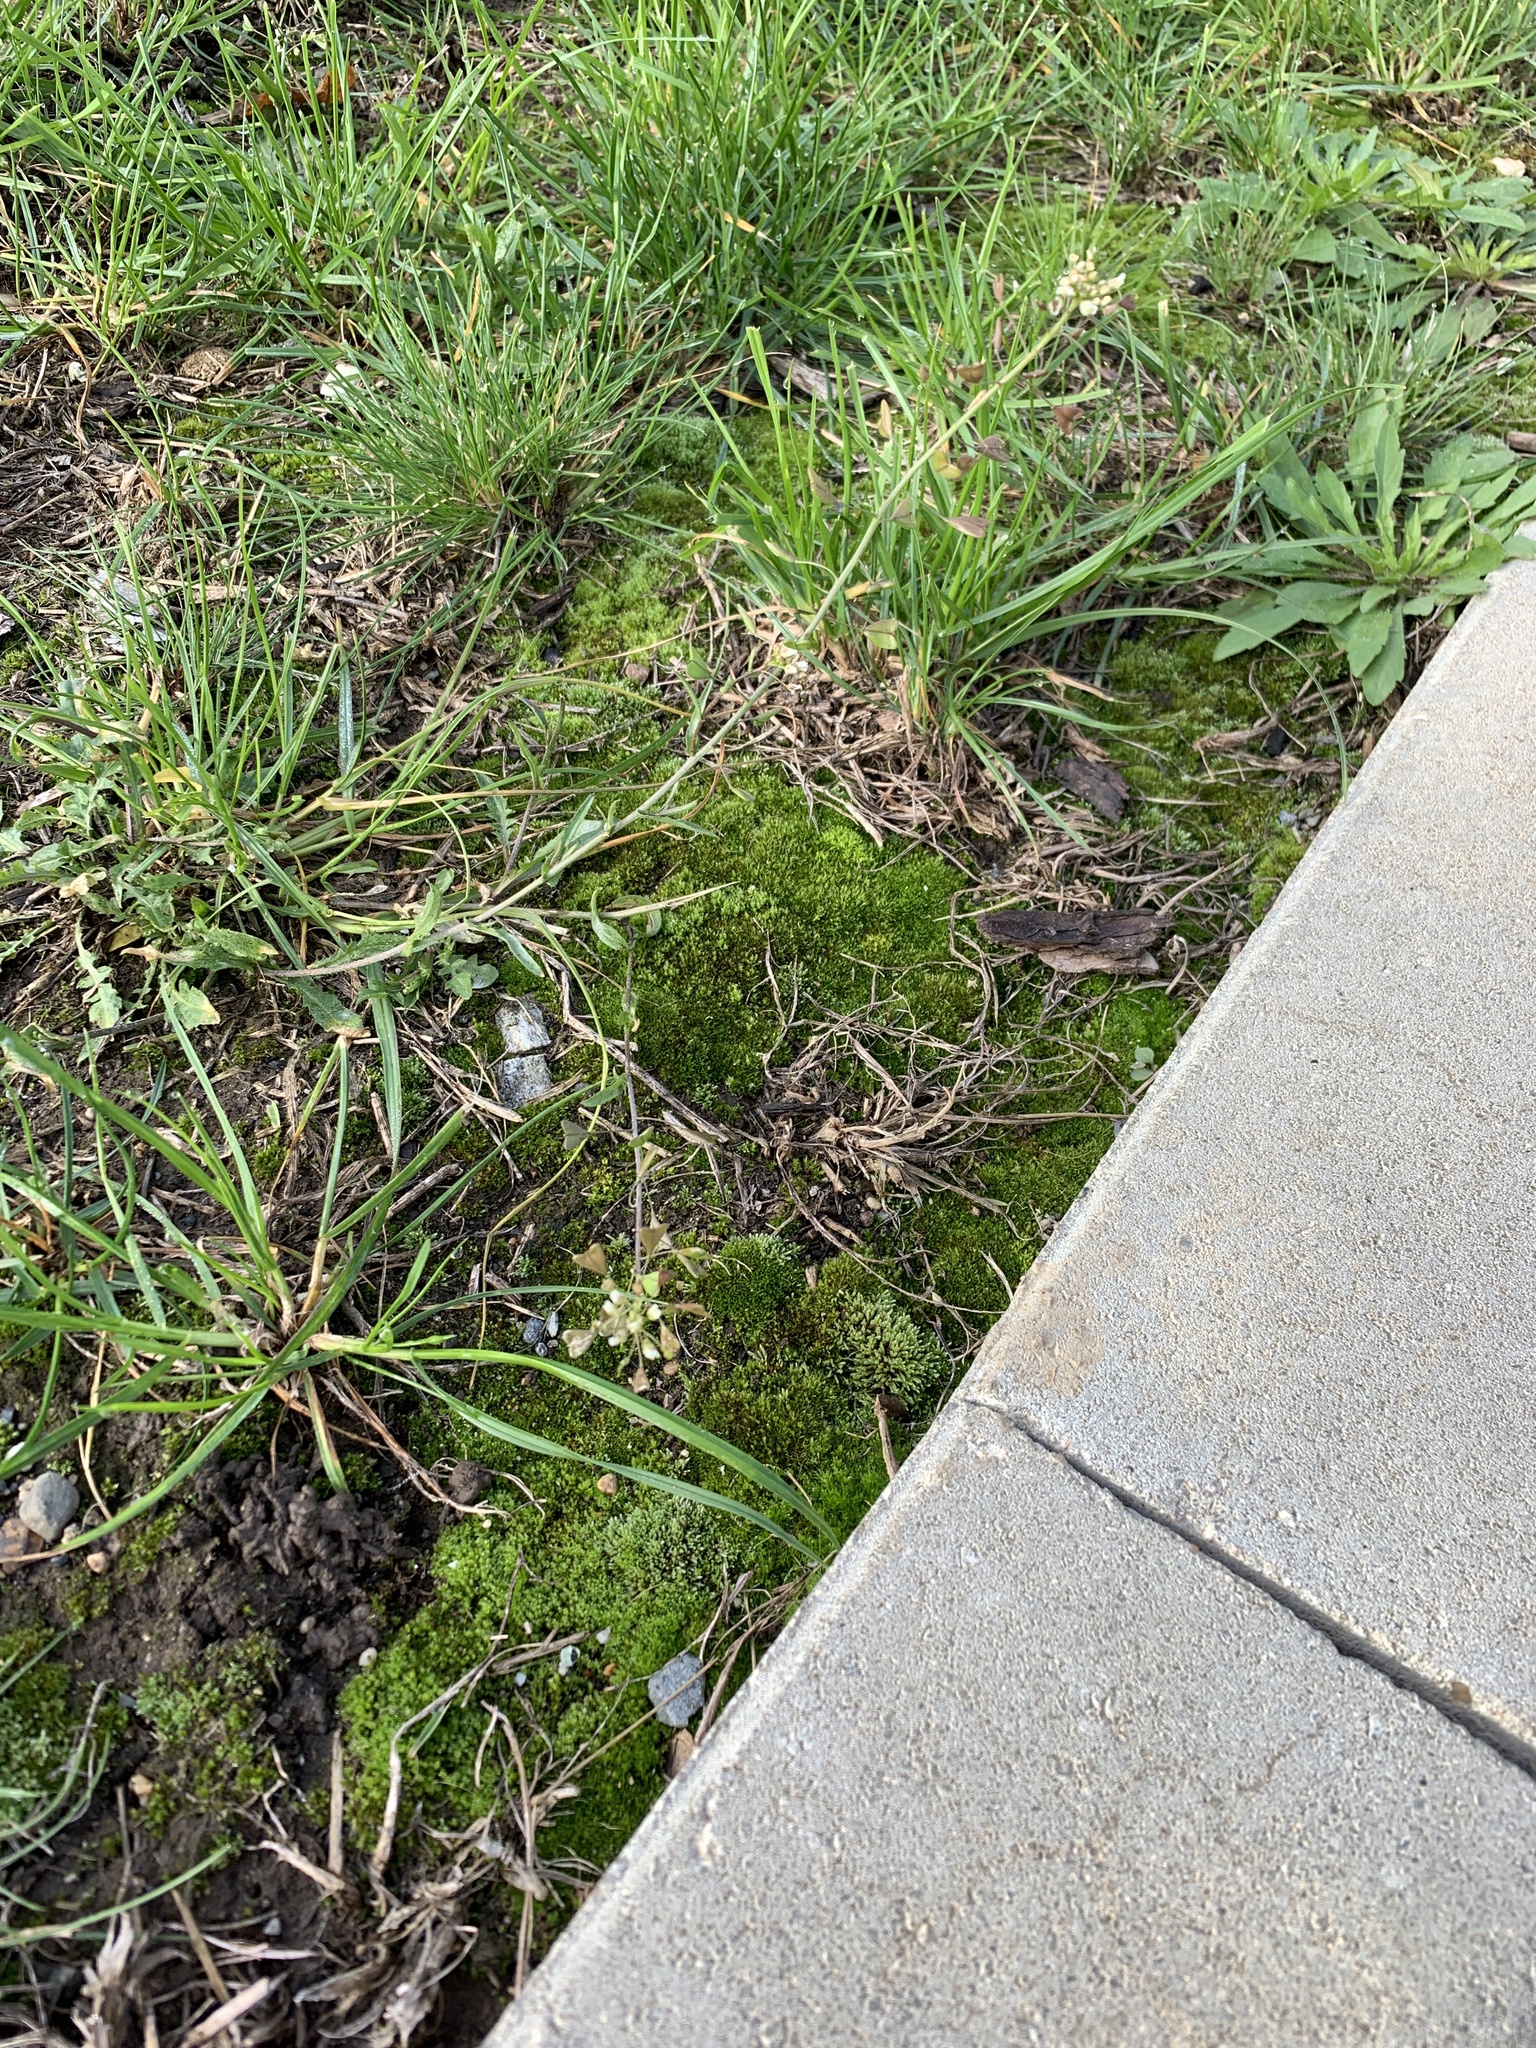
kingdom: Plantae
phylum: Tracheophyta
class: Magnoliopsida
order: Brassicales
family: Brassicaceae
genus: Capsella
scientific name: Capsella bursa-pastoris
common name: Shepherd's purse
